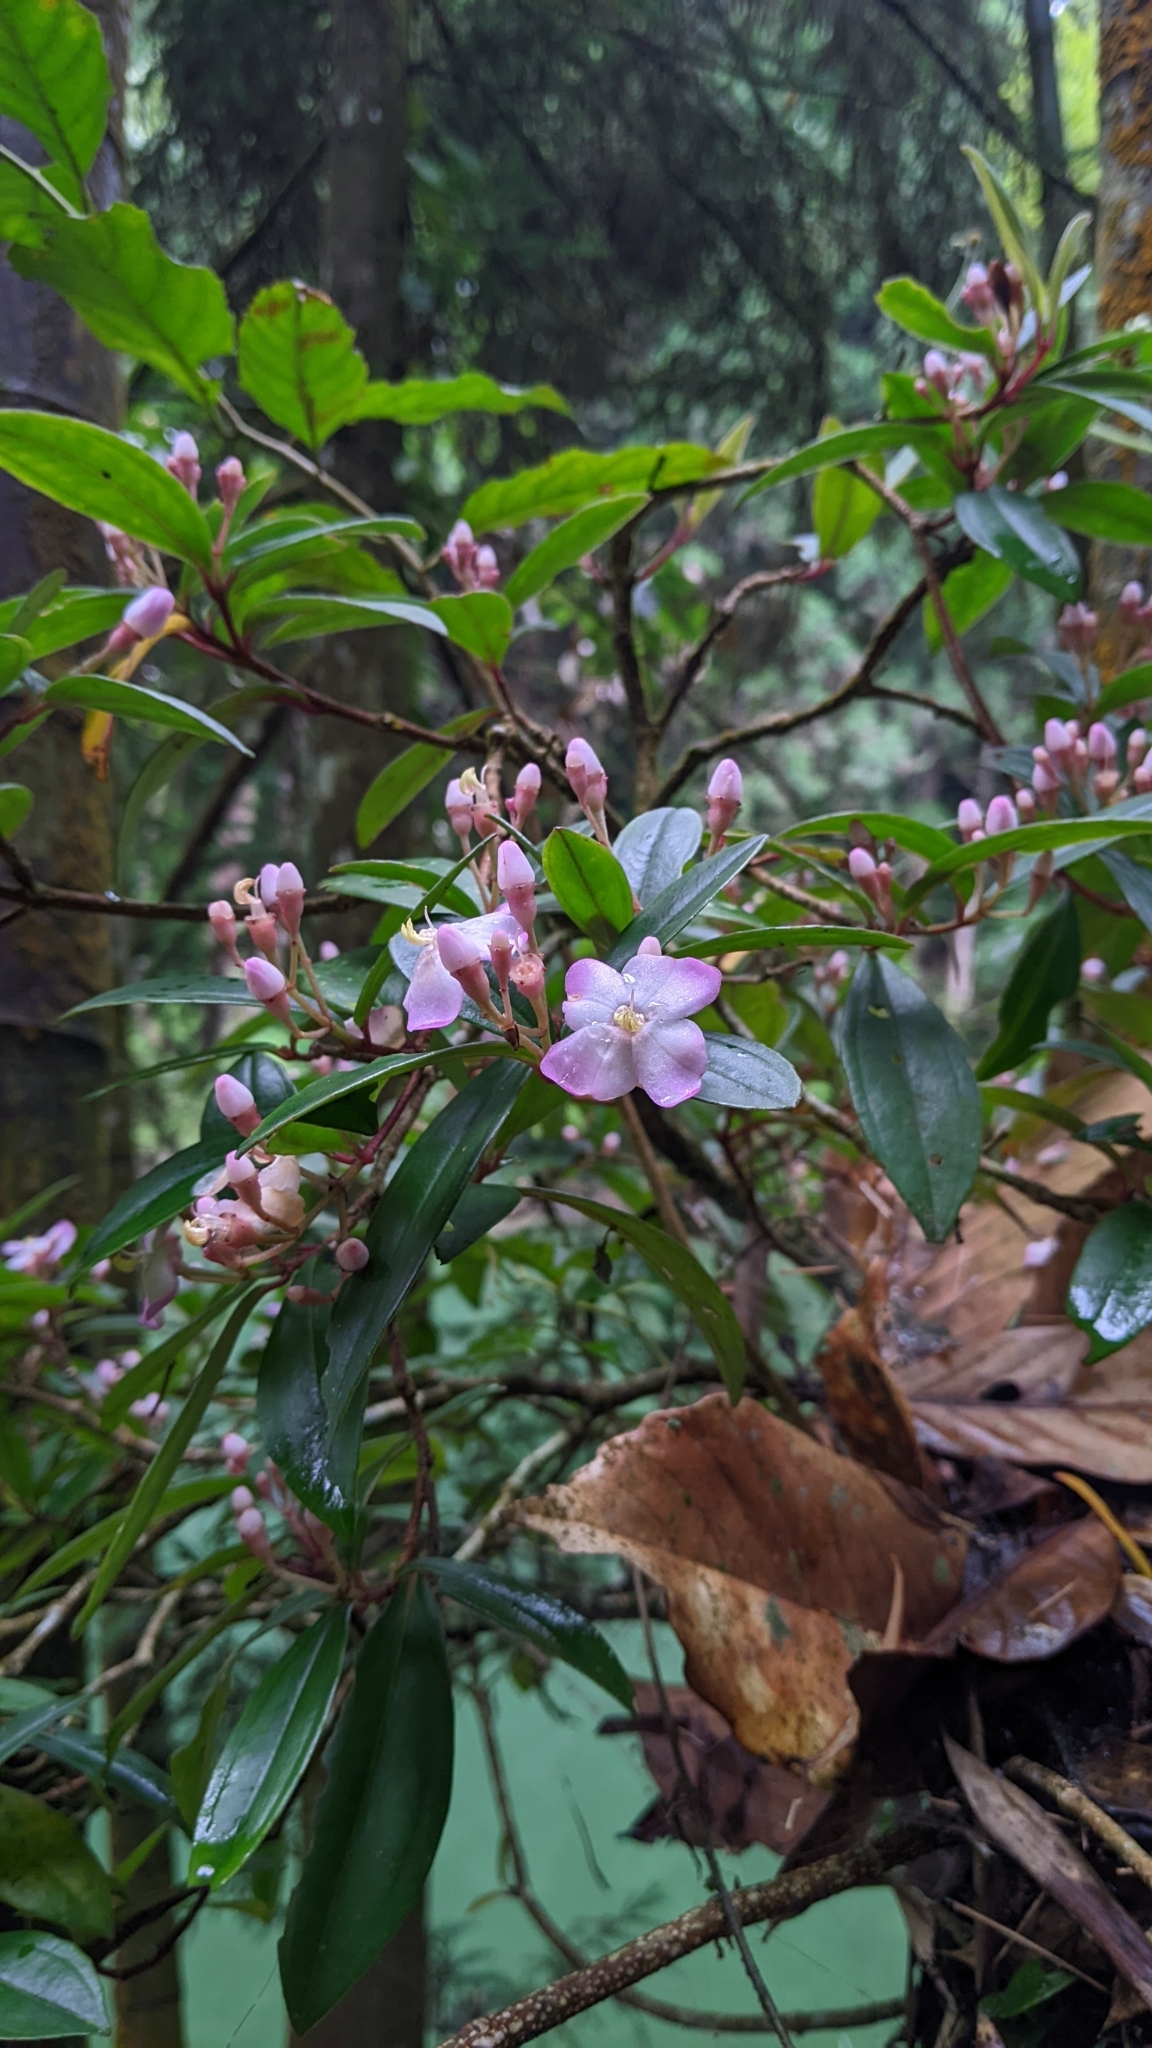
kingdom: Plantae
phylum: Tracheophyta
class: Magnoliopsida
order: Myrtales
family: Melastomataceae
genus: Medinilla
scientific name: Medinilla fengii
